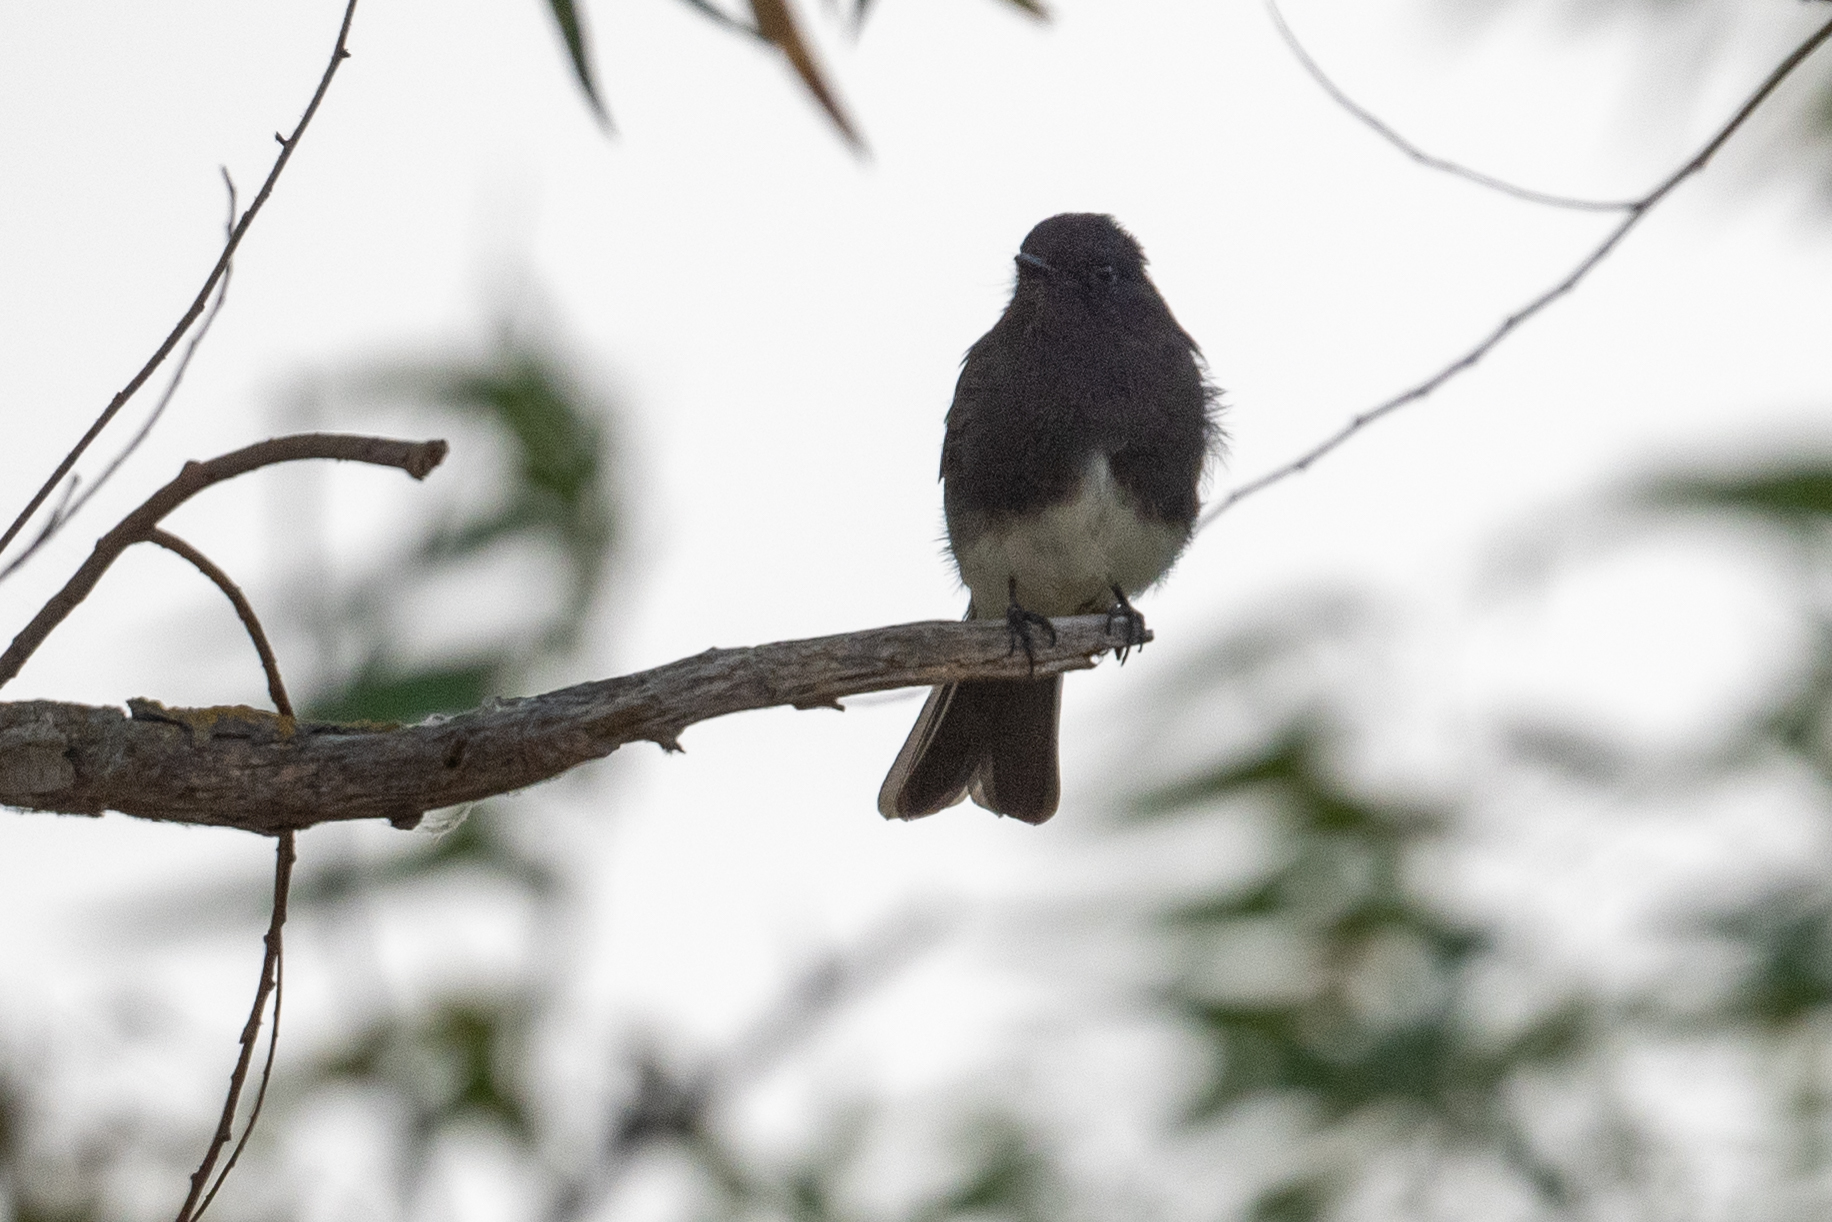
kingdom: Animalia
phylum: Chordata
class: Aves
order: Passeriformes
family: Tyrannidae
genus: Sayornis
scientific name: Sayornis nigricans
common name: Black phoebe
